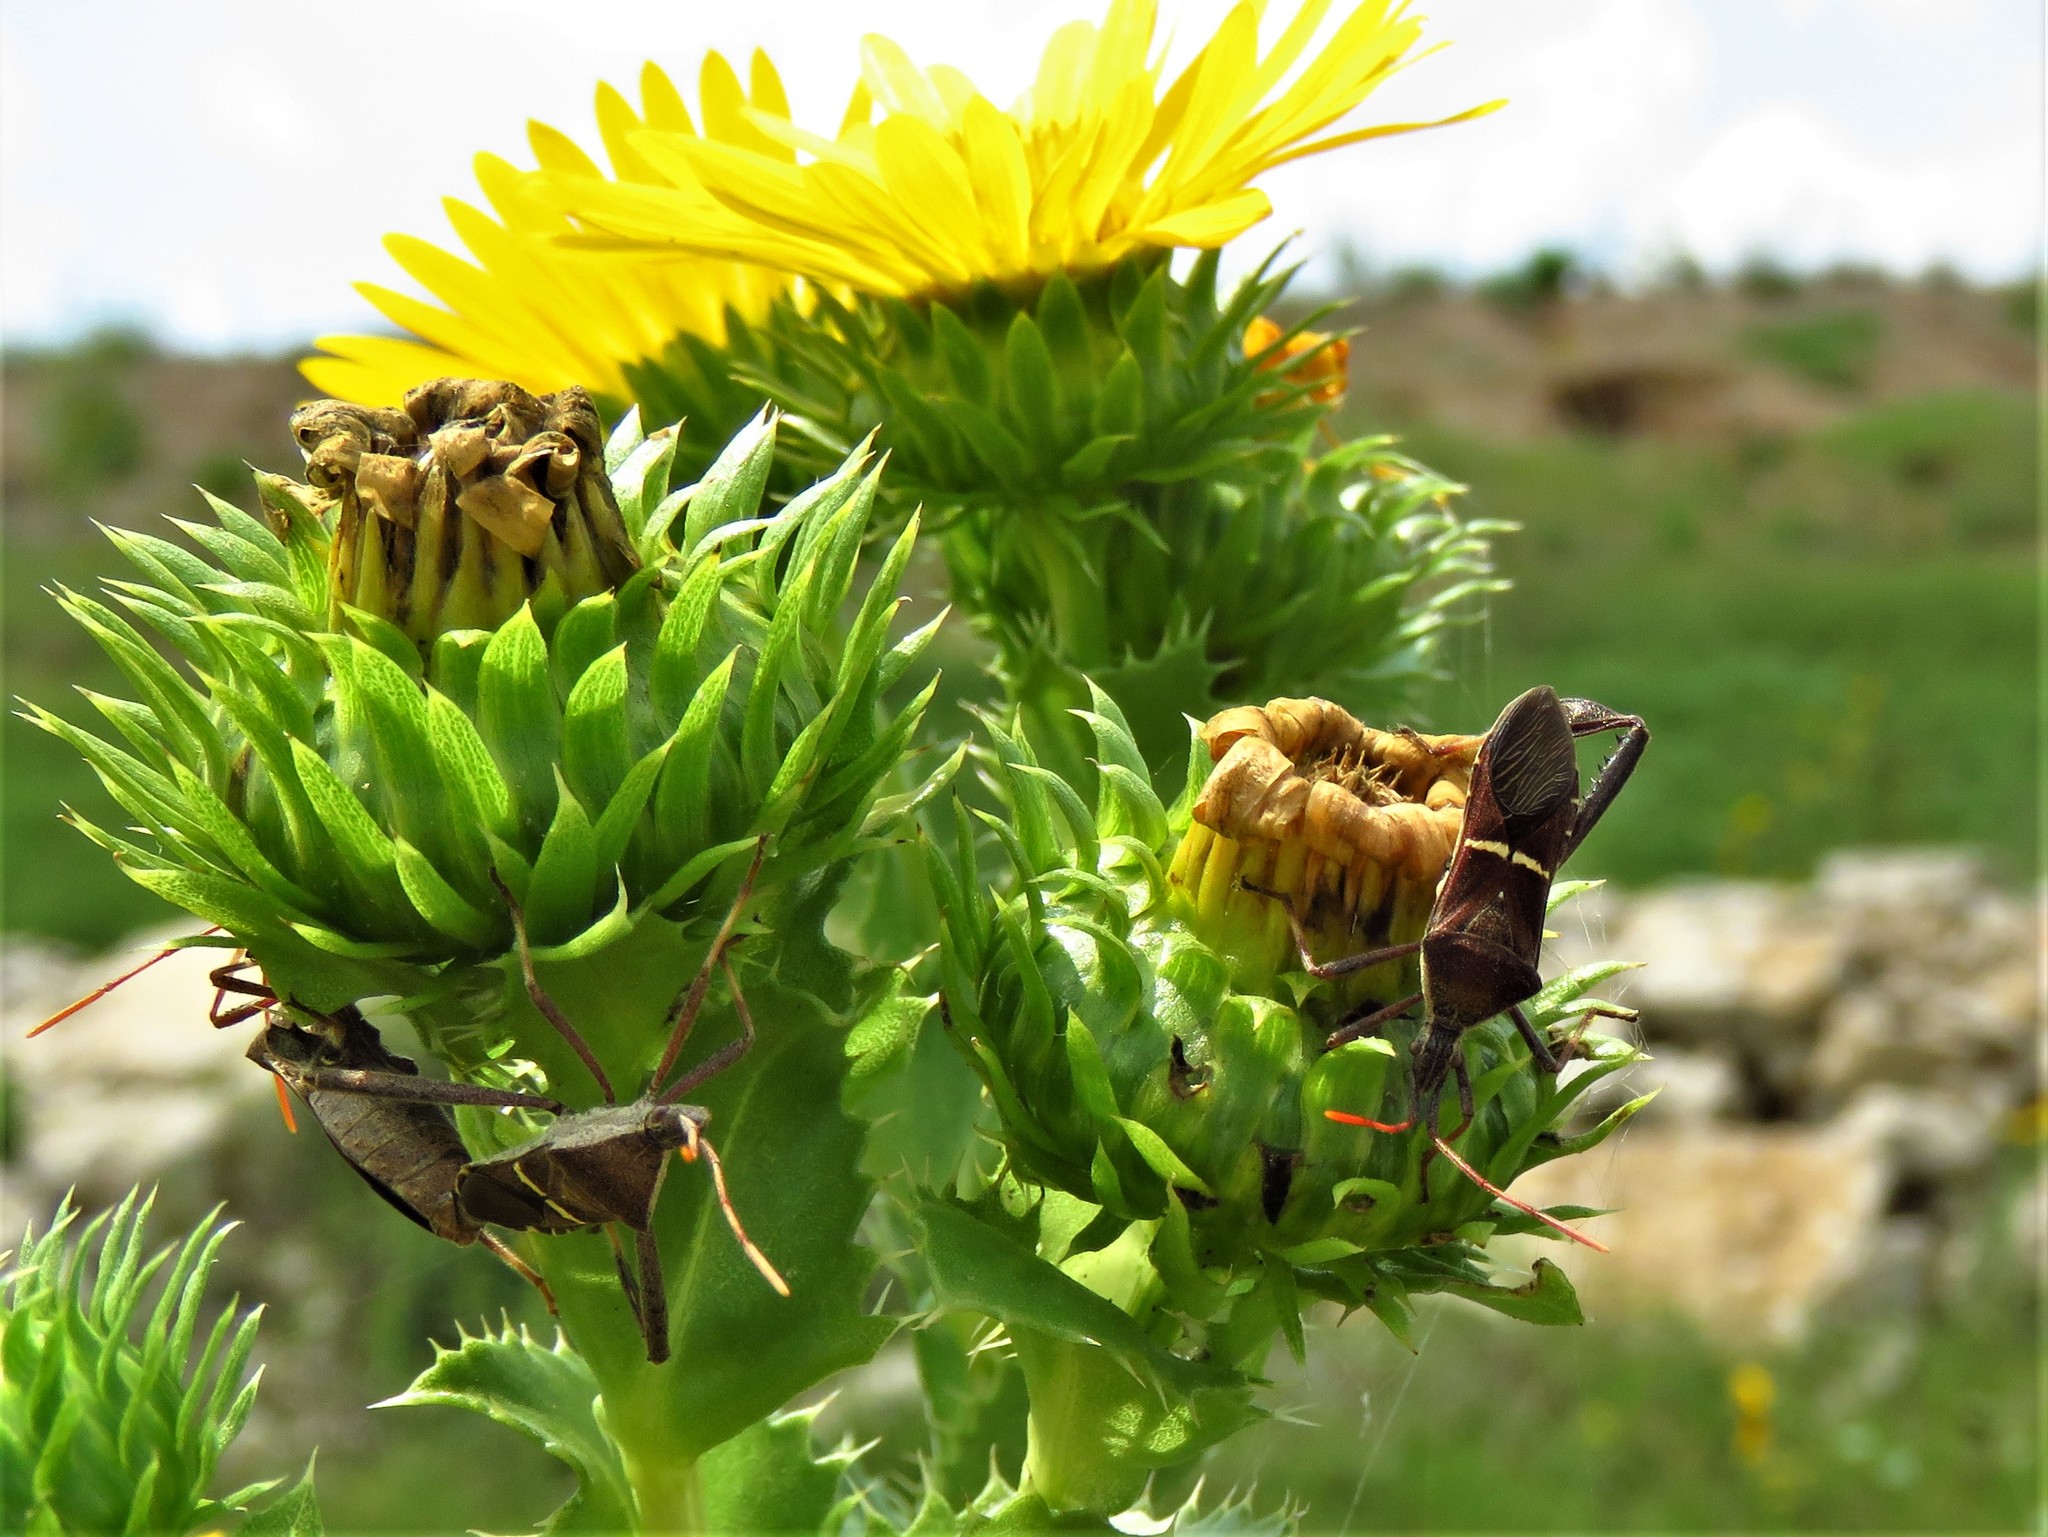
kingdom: Animalia
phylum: Arthropoda
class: Insecta
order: Hemiptera
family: Coreidae
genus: Leptoglossus
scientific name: Leptoglossus phyllopus
